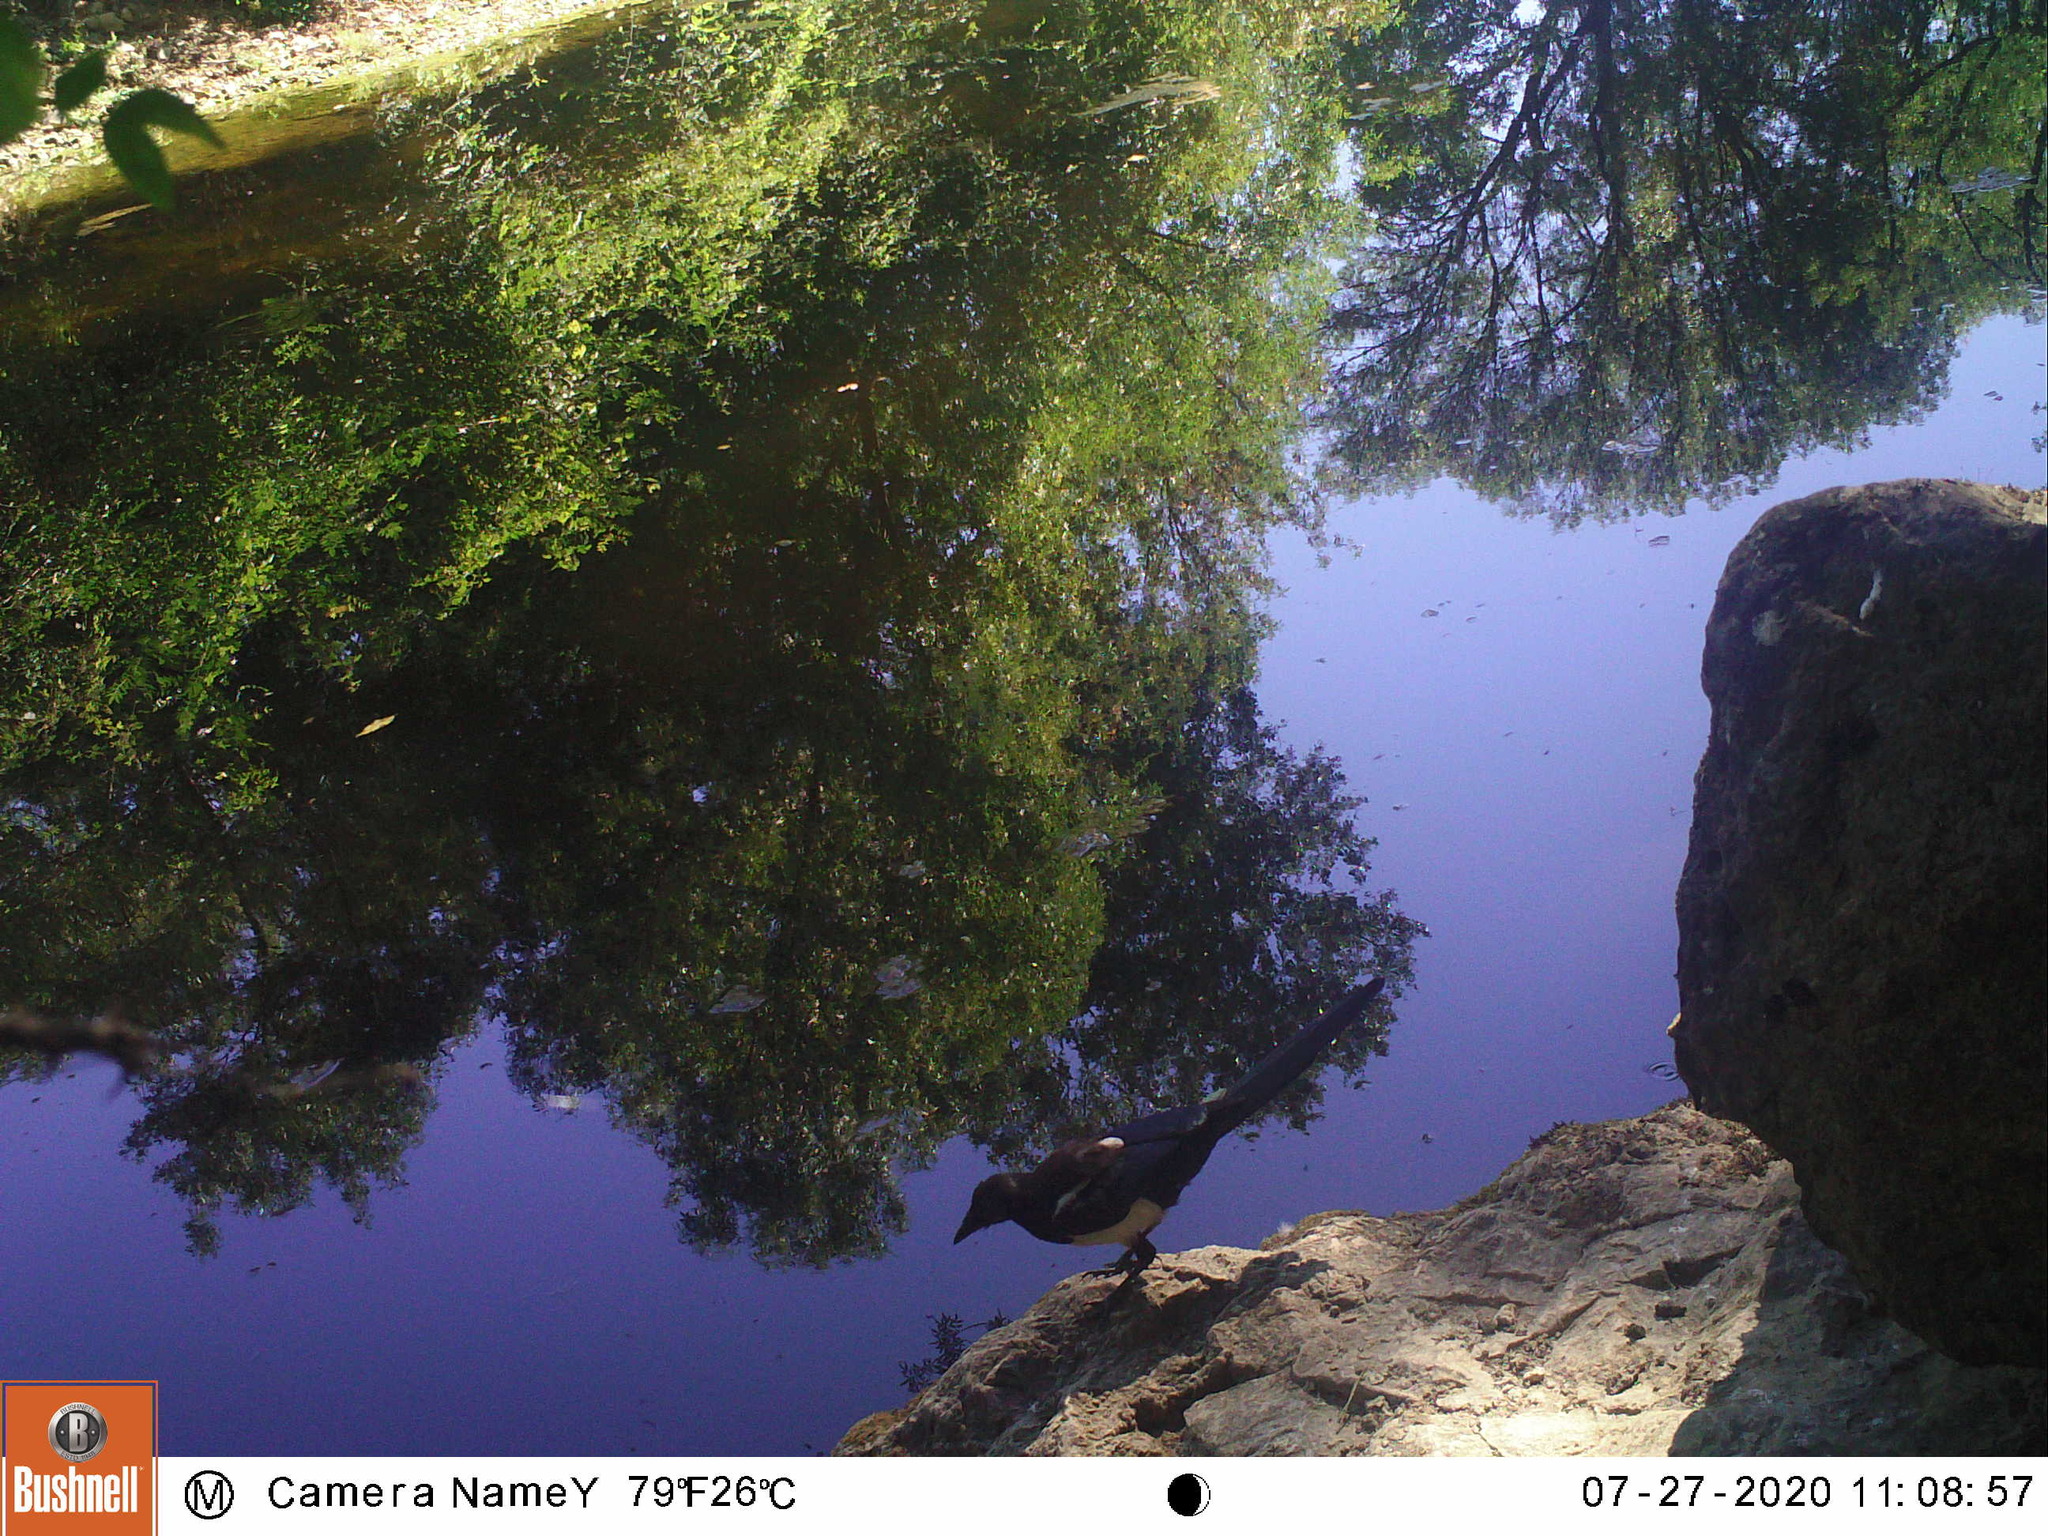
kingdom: Animalia
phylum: Chordata
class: Aves
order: Passeriformes
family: Corvidae
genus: Pica
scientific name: Pica pica
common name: Eurasian magpie
